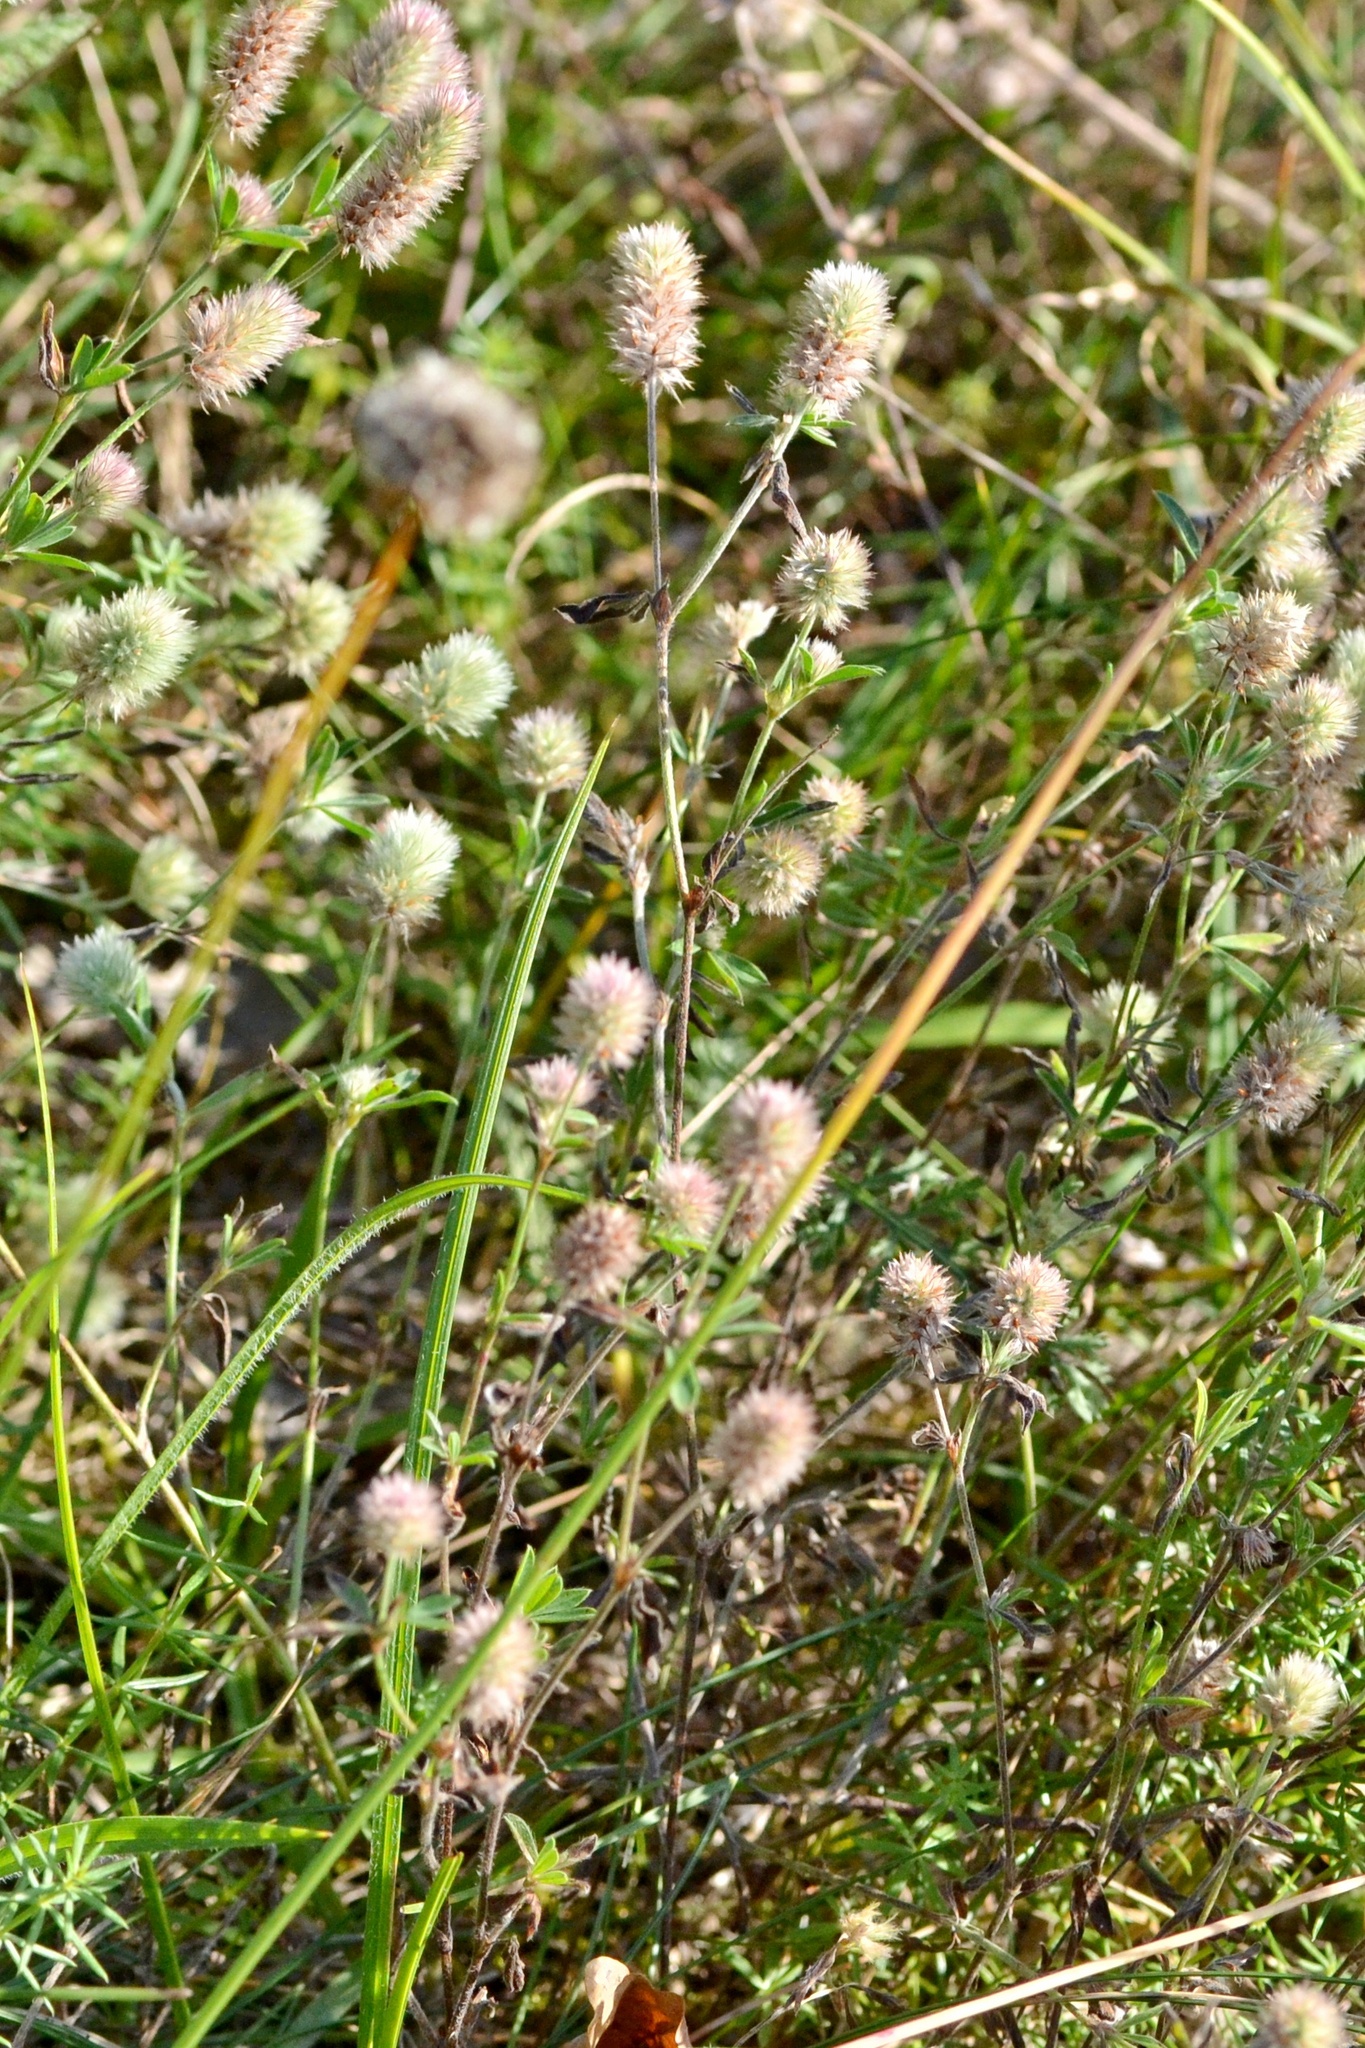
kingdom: Plantae
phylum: Tracheophyta
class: Magnoliopsida
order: Fabales
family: Fabaceae
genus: Trifolium
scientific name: Trifolium arvense
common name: Hare's-foot clover
